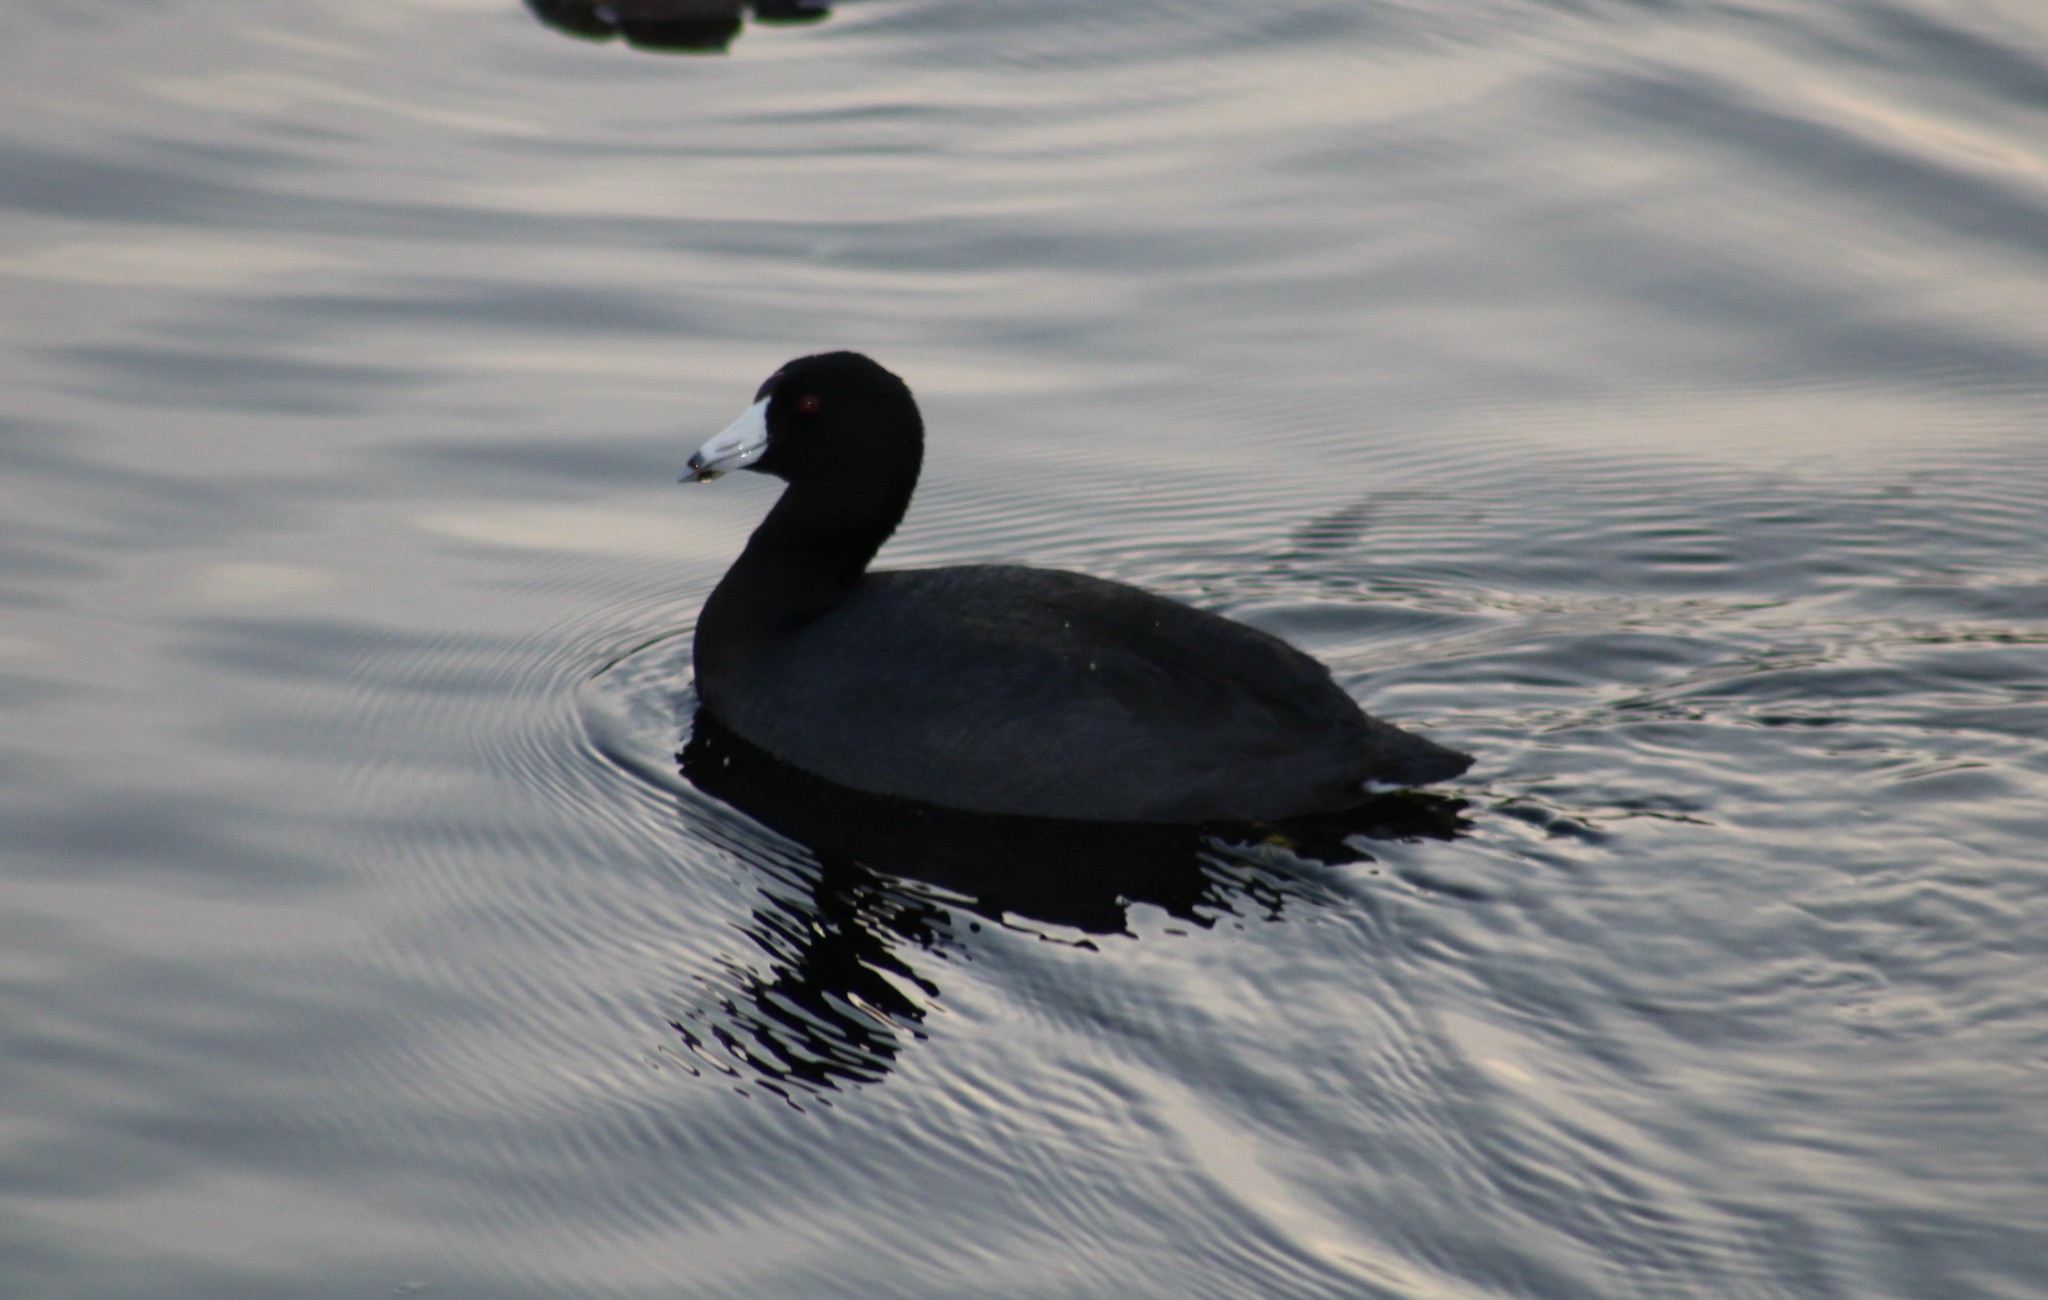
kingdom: Animalia
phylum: Chordata
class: Aves
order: Gruiformes
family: Rallidae
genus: Fulica
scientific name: Fulica americana
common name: American coot
